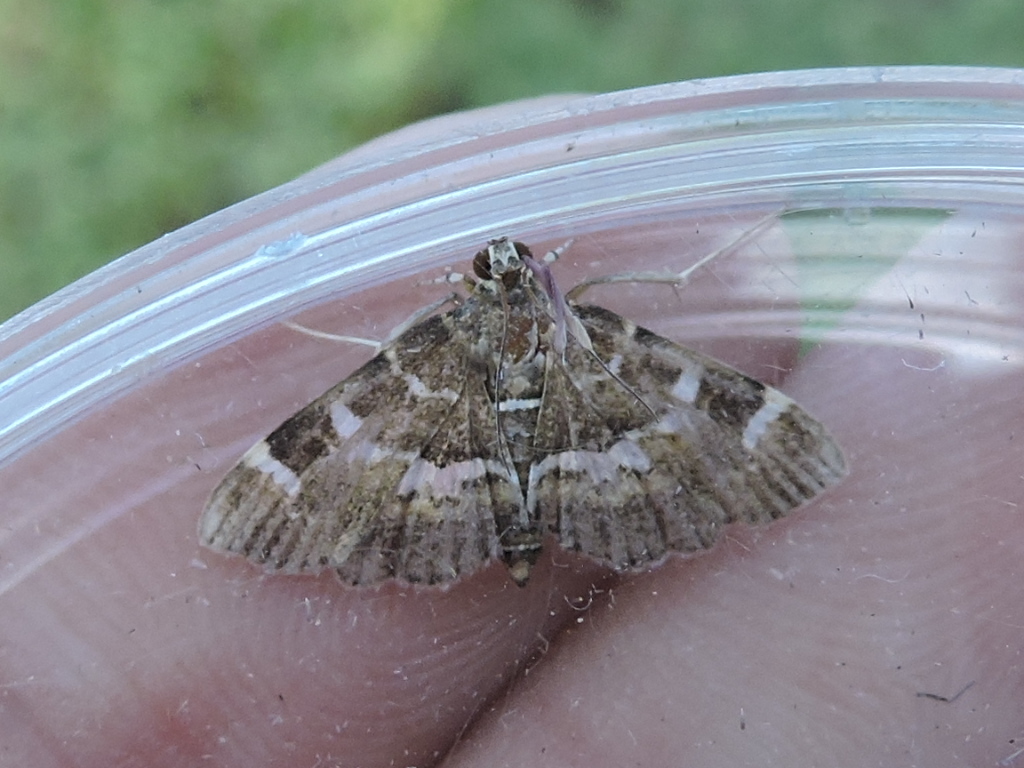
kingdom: Animalia
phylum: Arthropoda
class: Insecta
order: Lepidoptera
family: Crambidae
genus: Hymenia
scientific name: Hymenia perspectalis
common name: Spotted beet webworm
